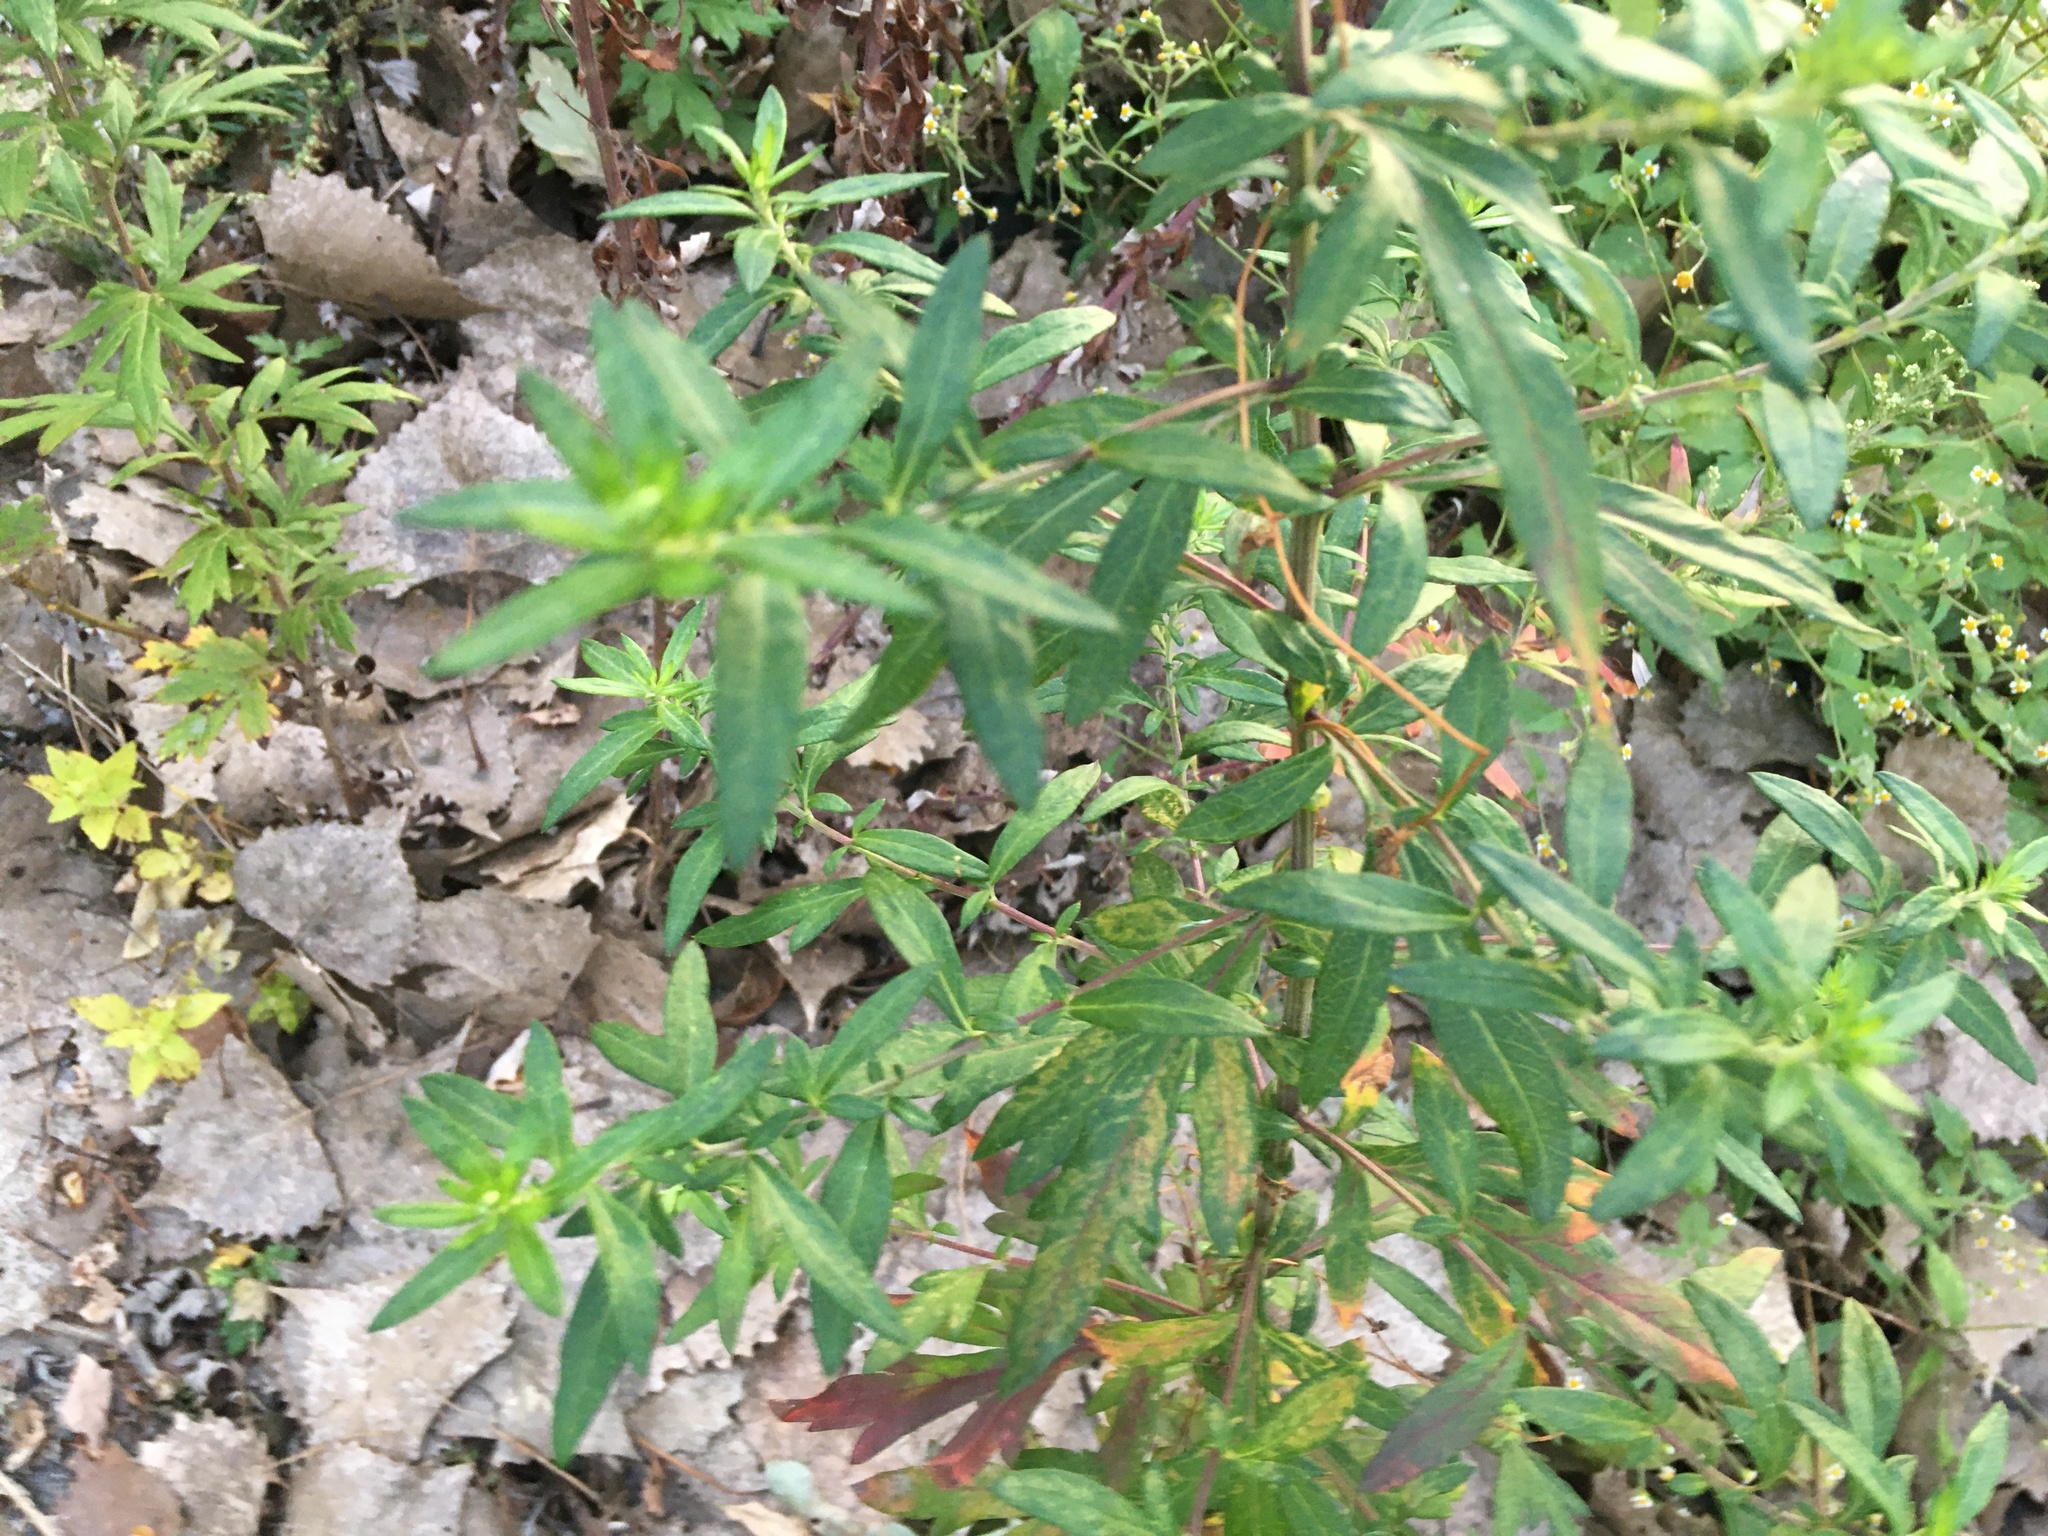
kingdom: Plantae
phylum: Tracheophyta
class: Magnoliopsida
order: Asterales
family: Asteraceae
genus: Artemisia
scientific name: Artemisia vulgaris
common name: Mugwort
